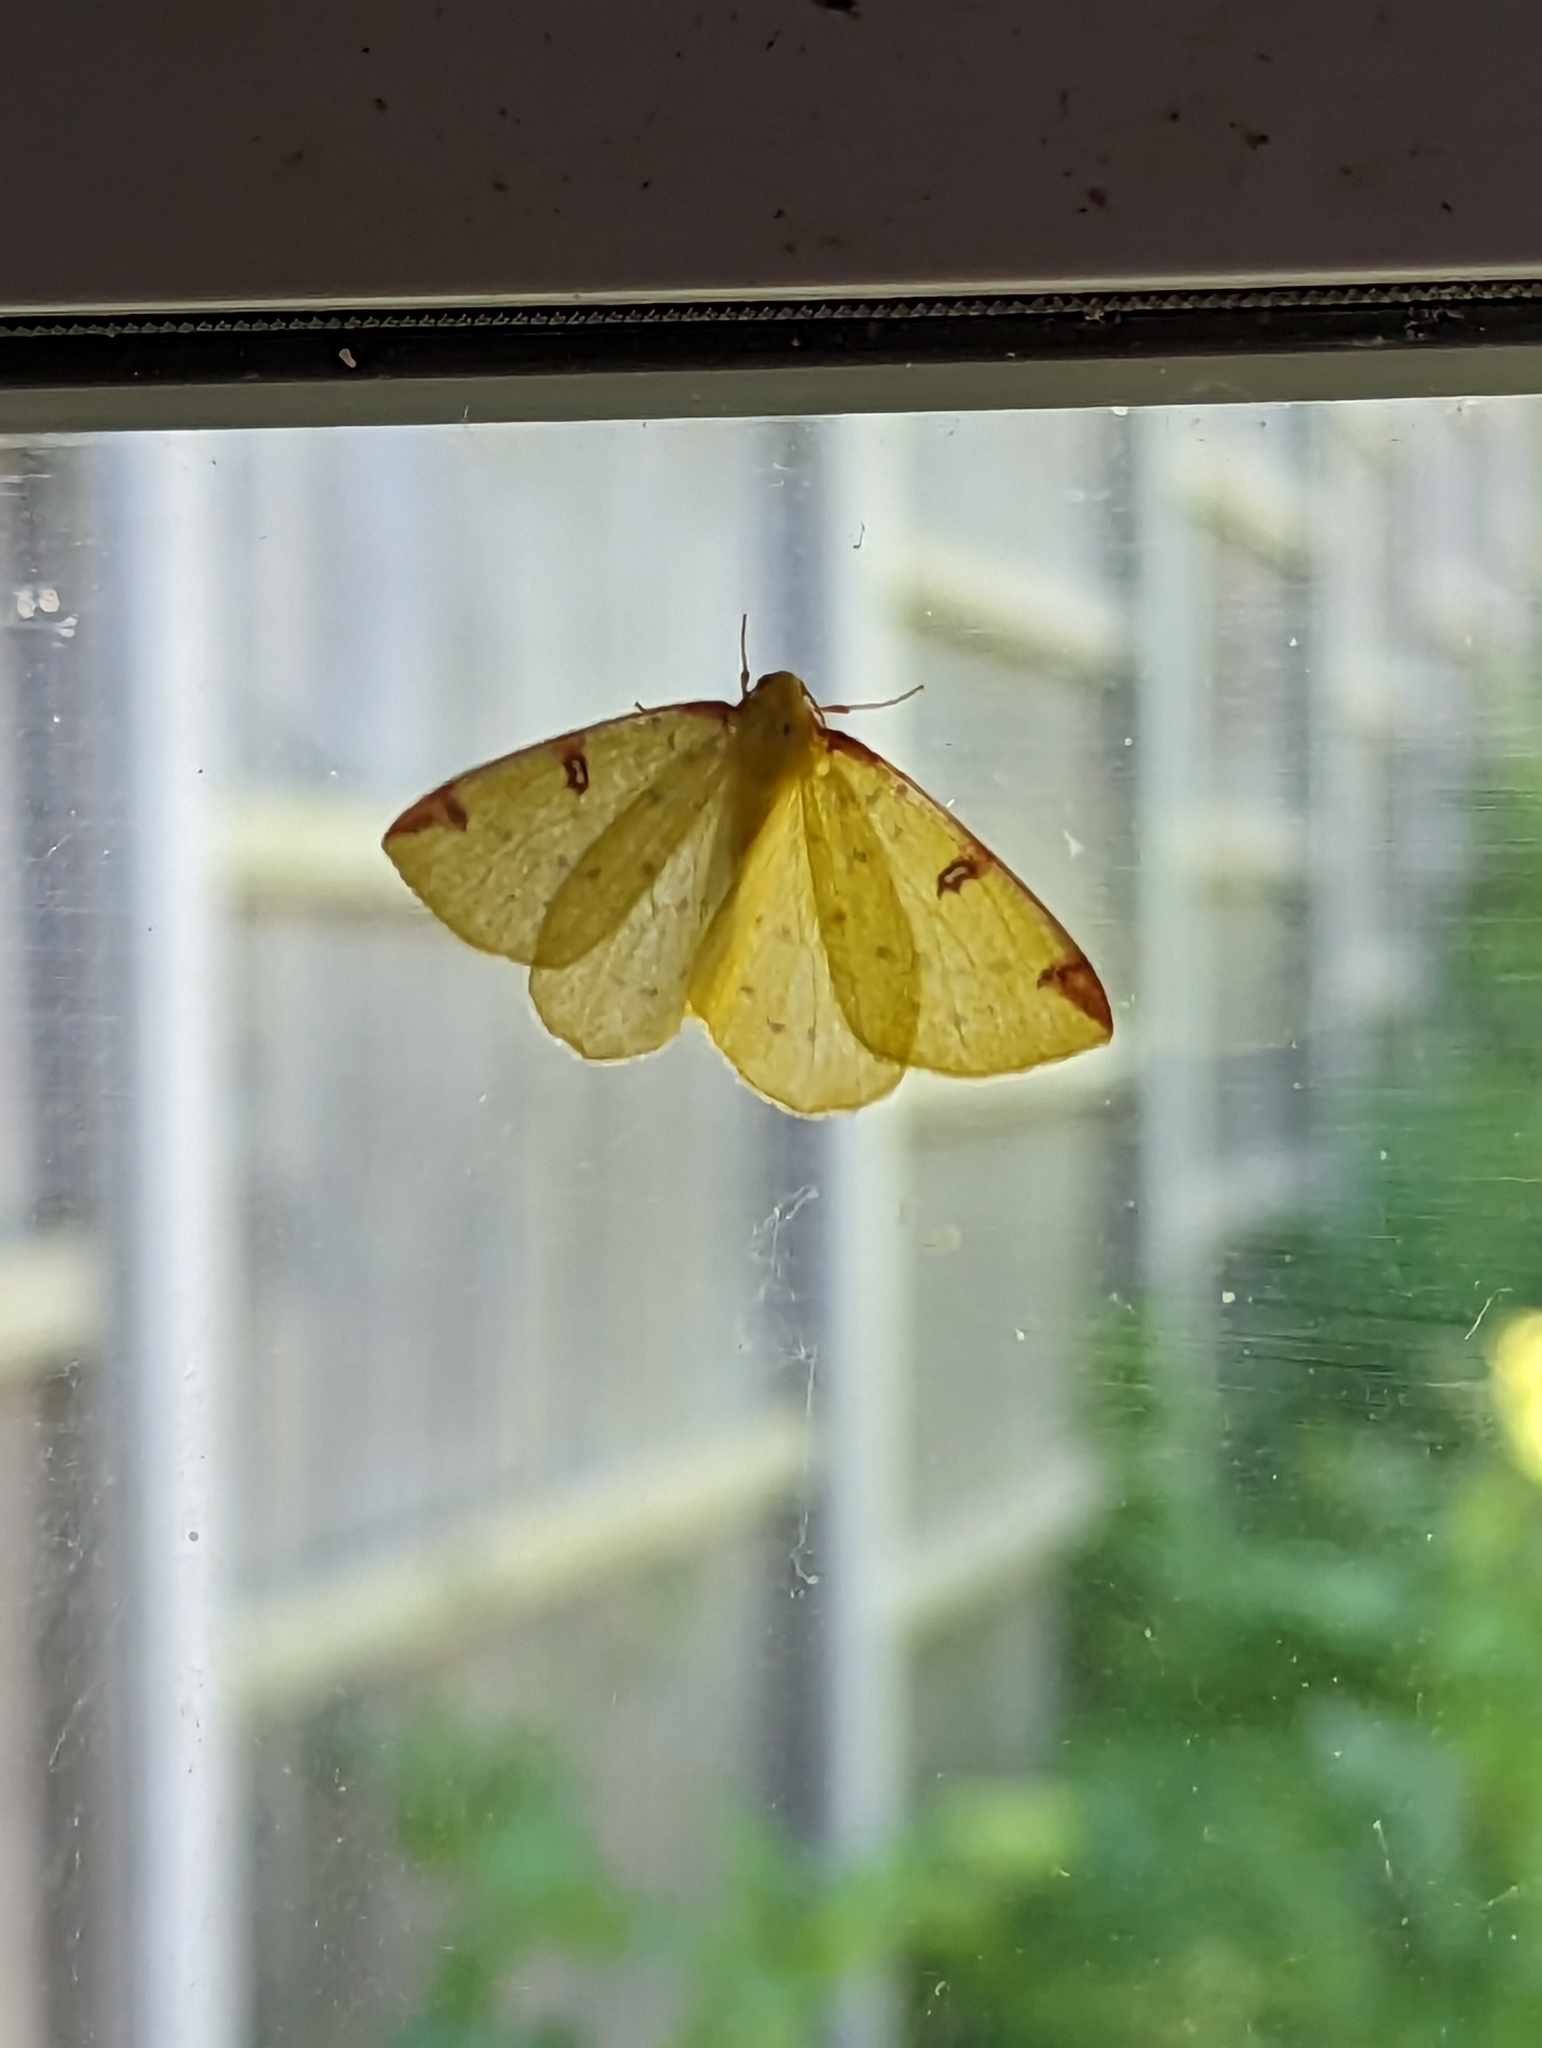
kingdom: Animalia
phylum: Arthropoda
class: Insecta
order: Lepidoptera
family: Geometridae
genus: Opisthograptis
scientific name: Opisthograptis luteolata
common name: Brimstone moth
